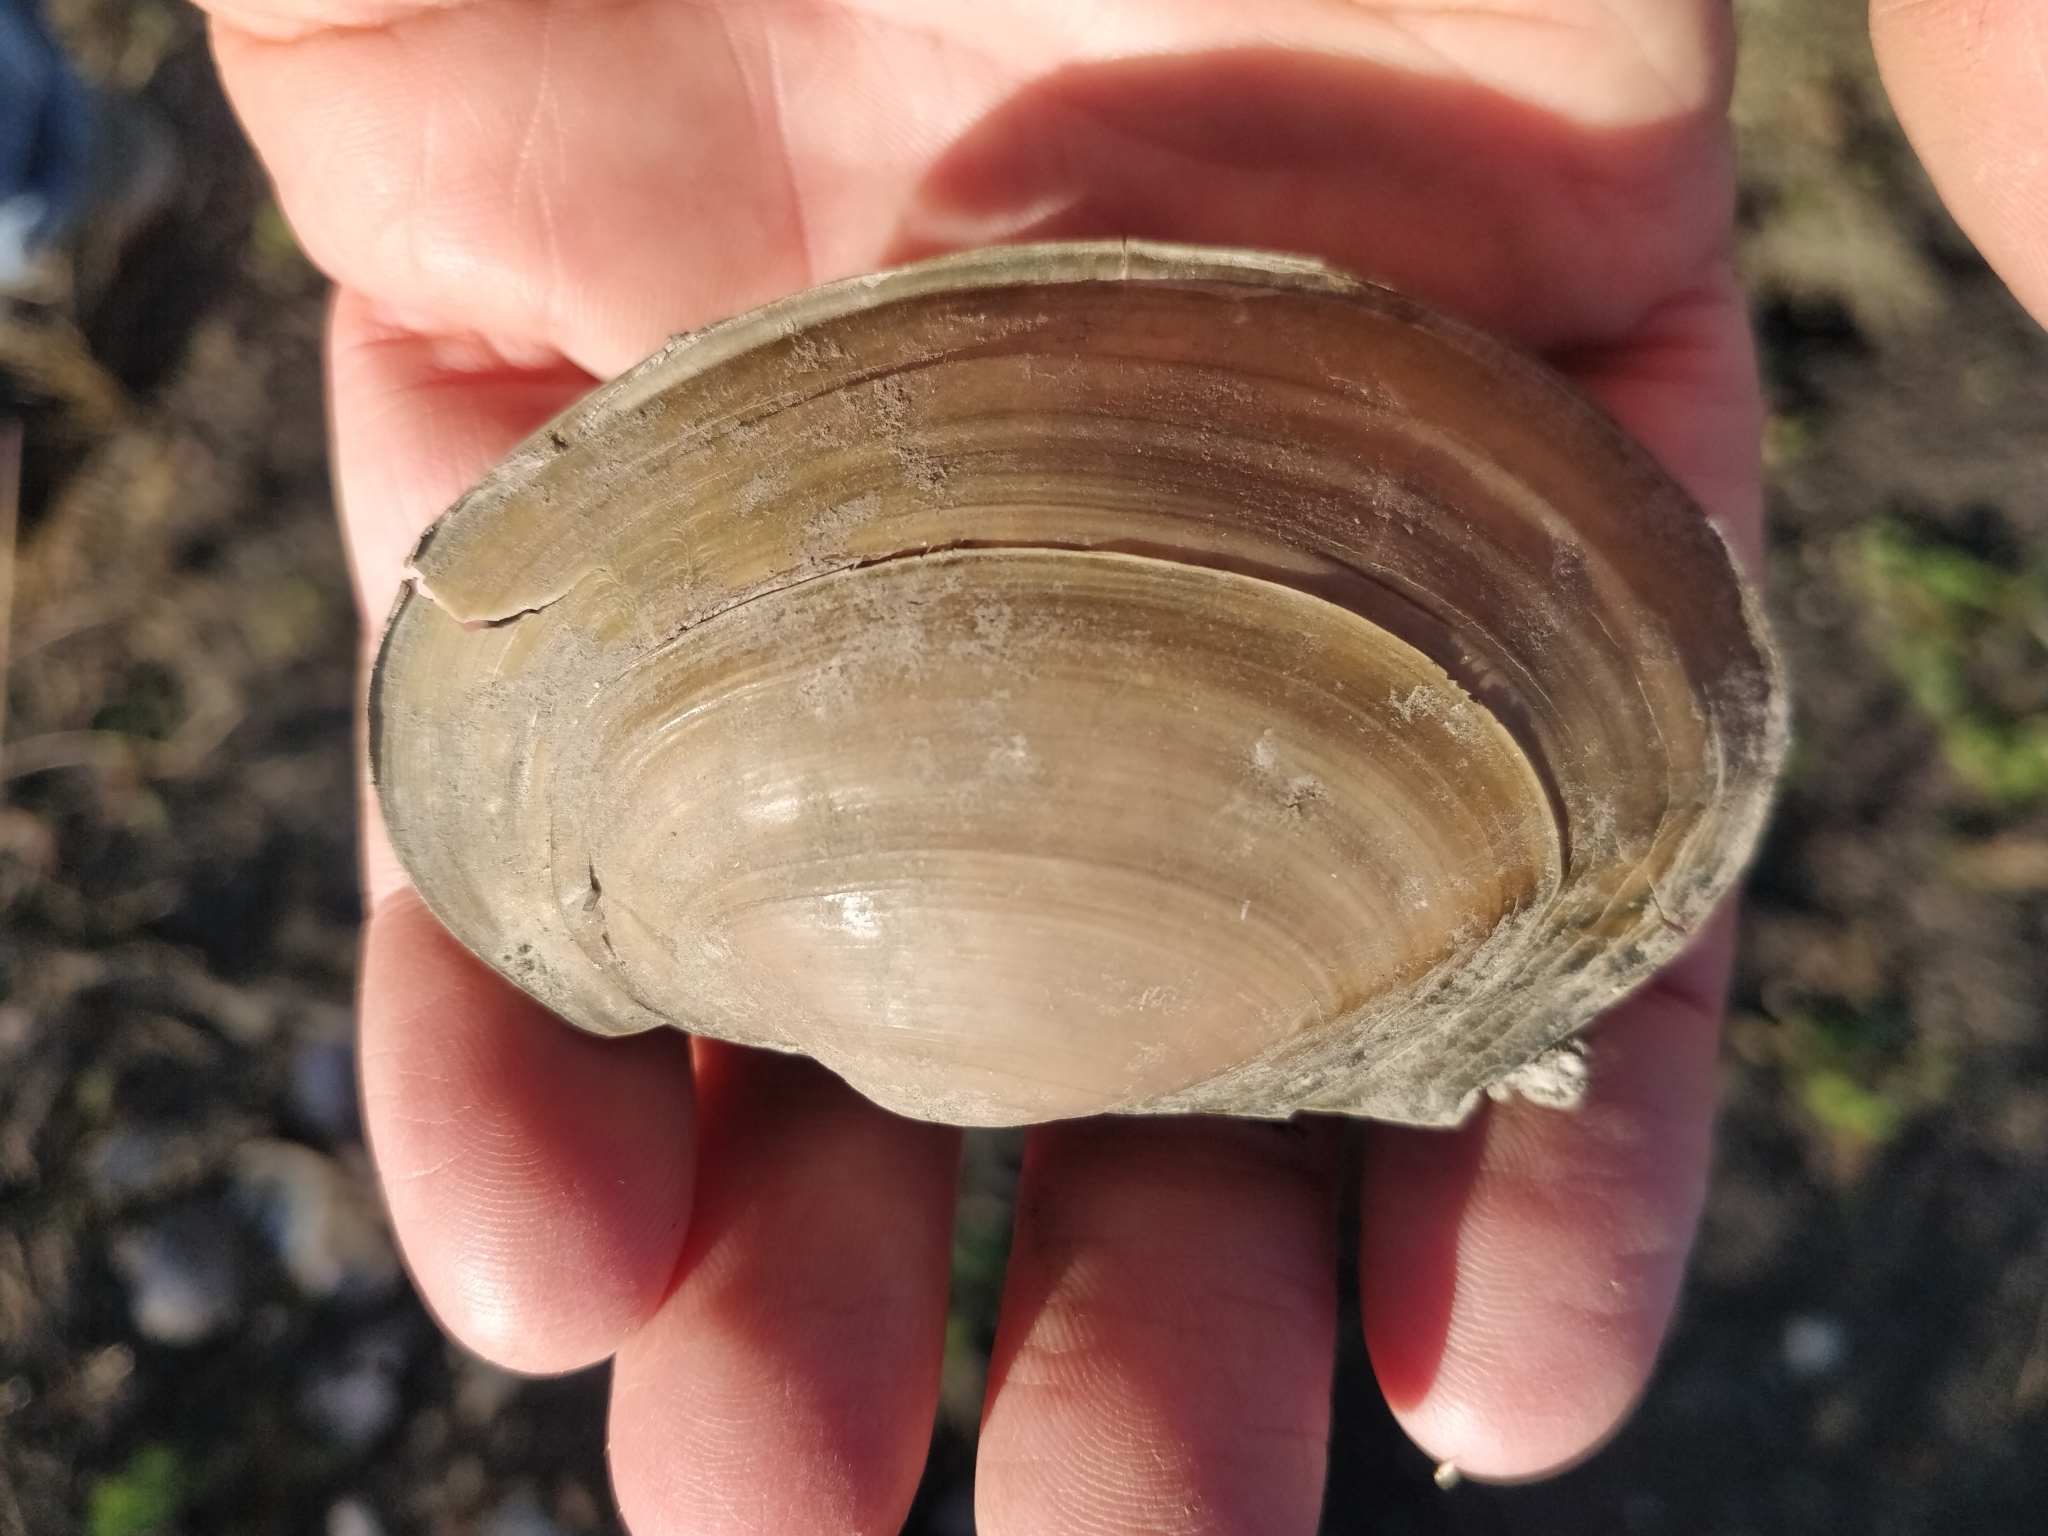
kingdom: Animalia
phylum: Mollusca
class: Bivalvia
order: Unionida
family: Unionidae
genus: Pyganodon
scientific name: Pyganodon grandis
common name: Giant floater
